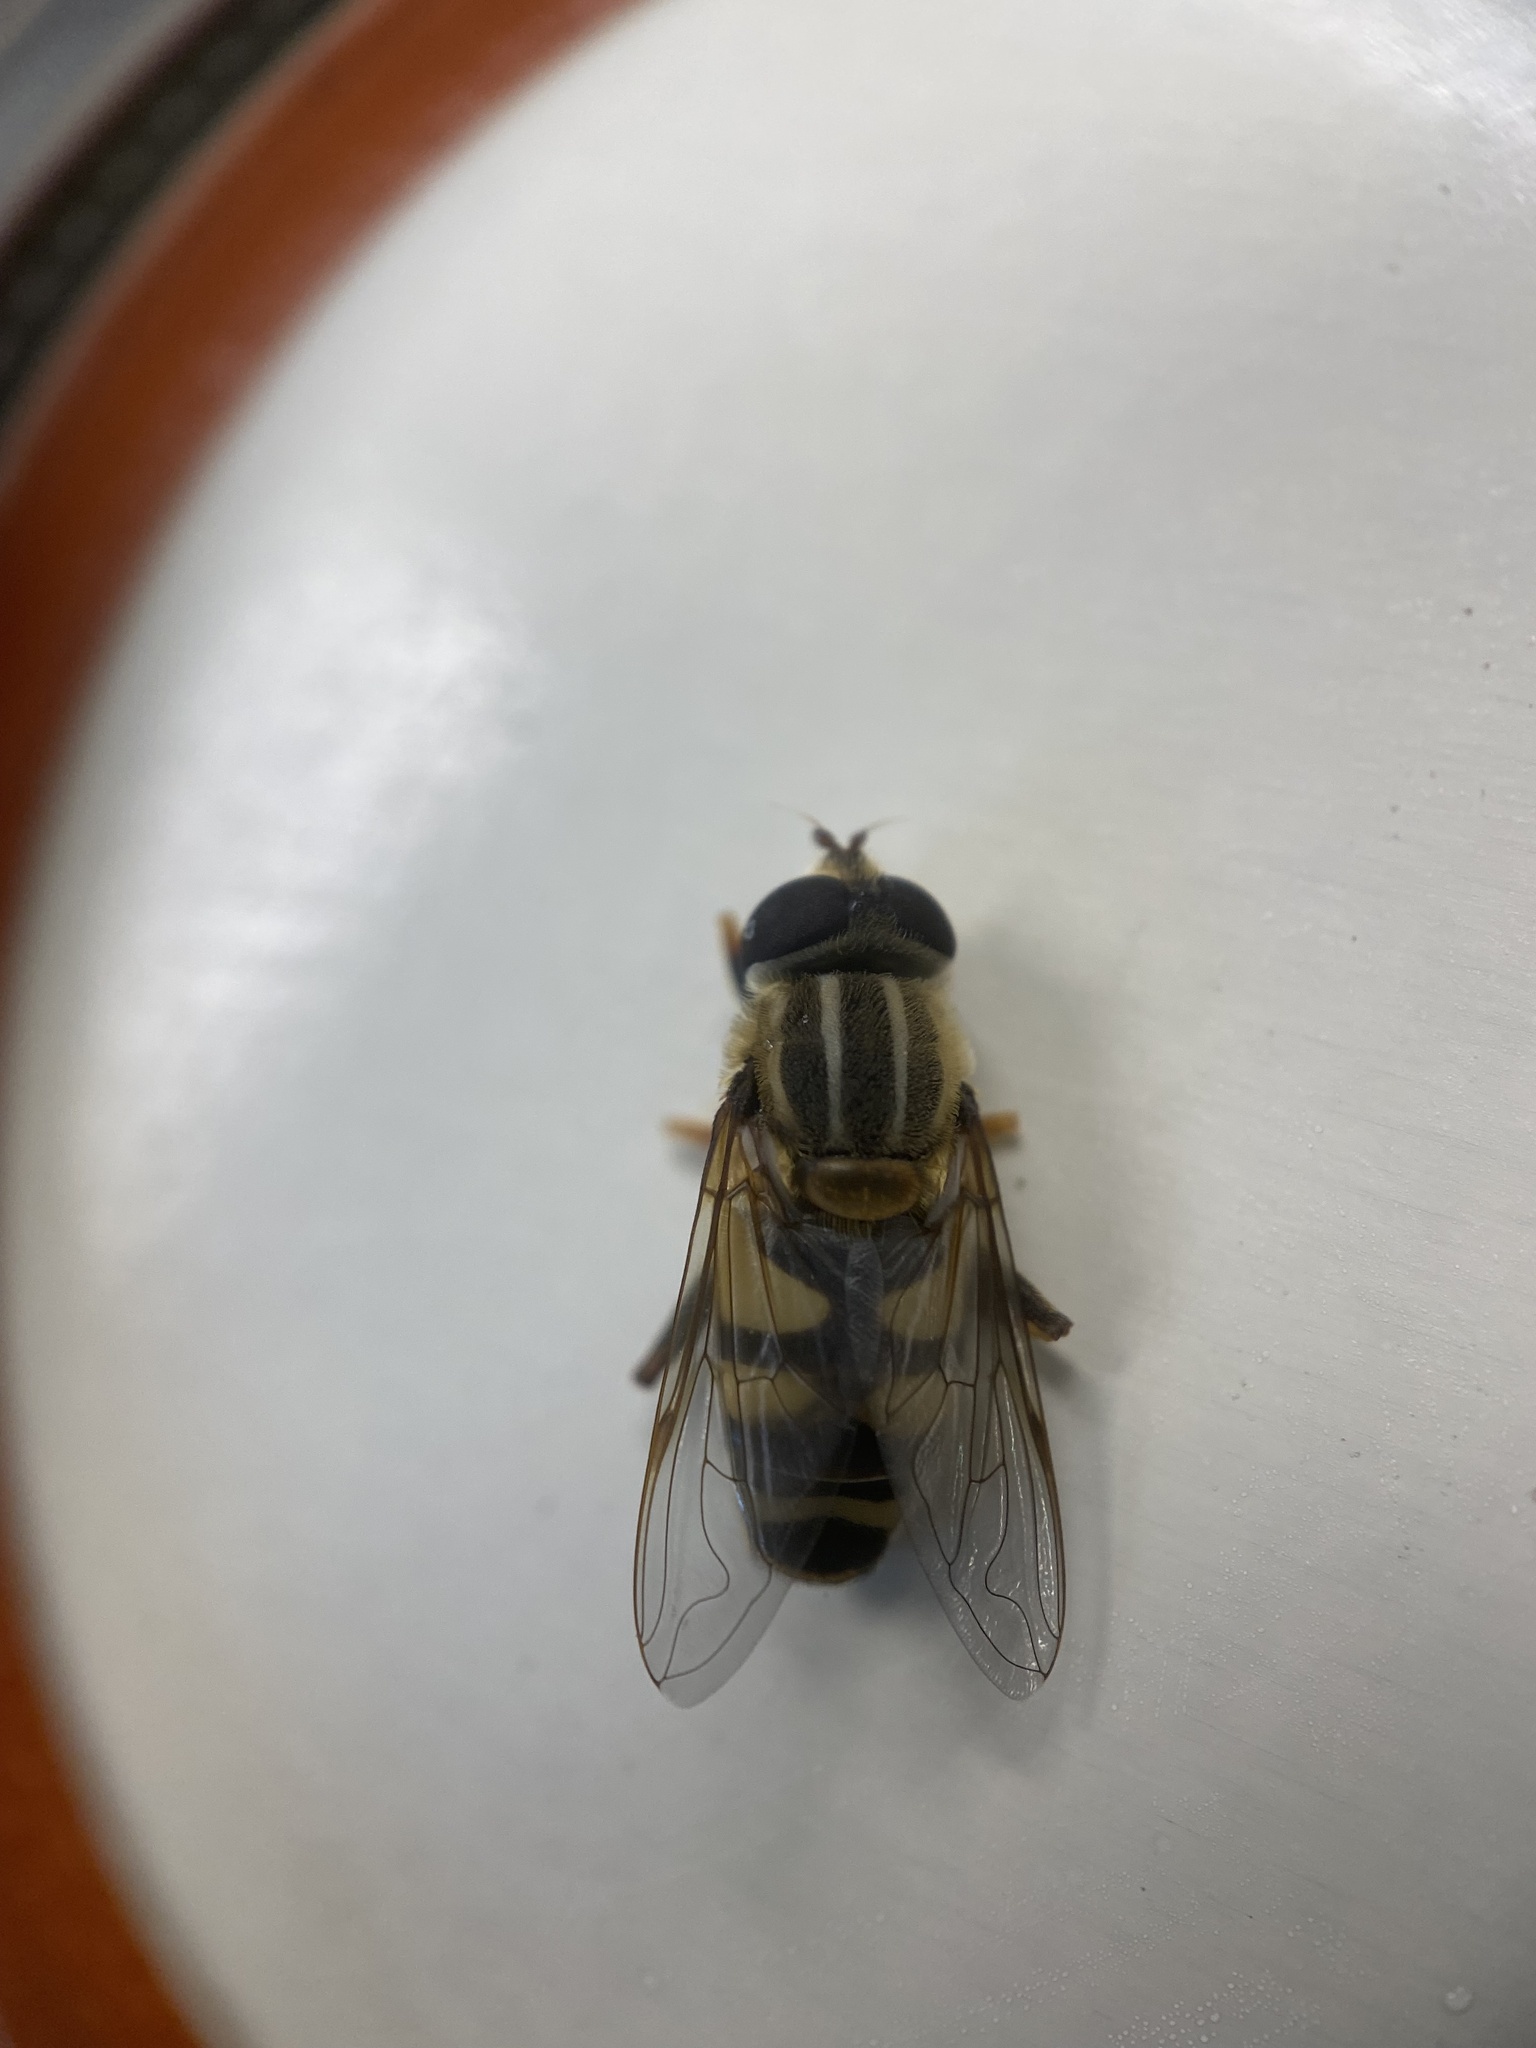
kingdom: Animalia
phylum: Arthropoda
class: Insecta
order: Diptera
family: Syrphidae
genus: Helophilus
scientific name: Helophilus fasciatus
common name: Narrow-headed marsh fly
